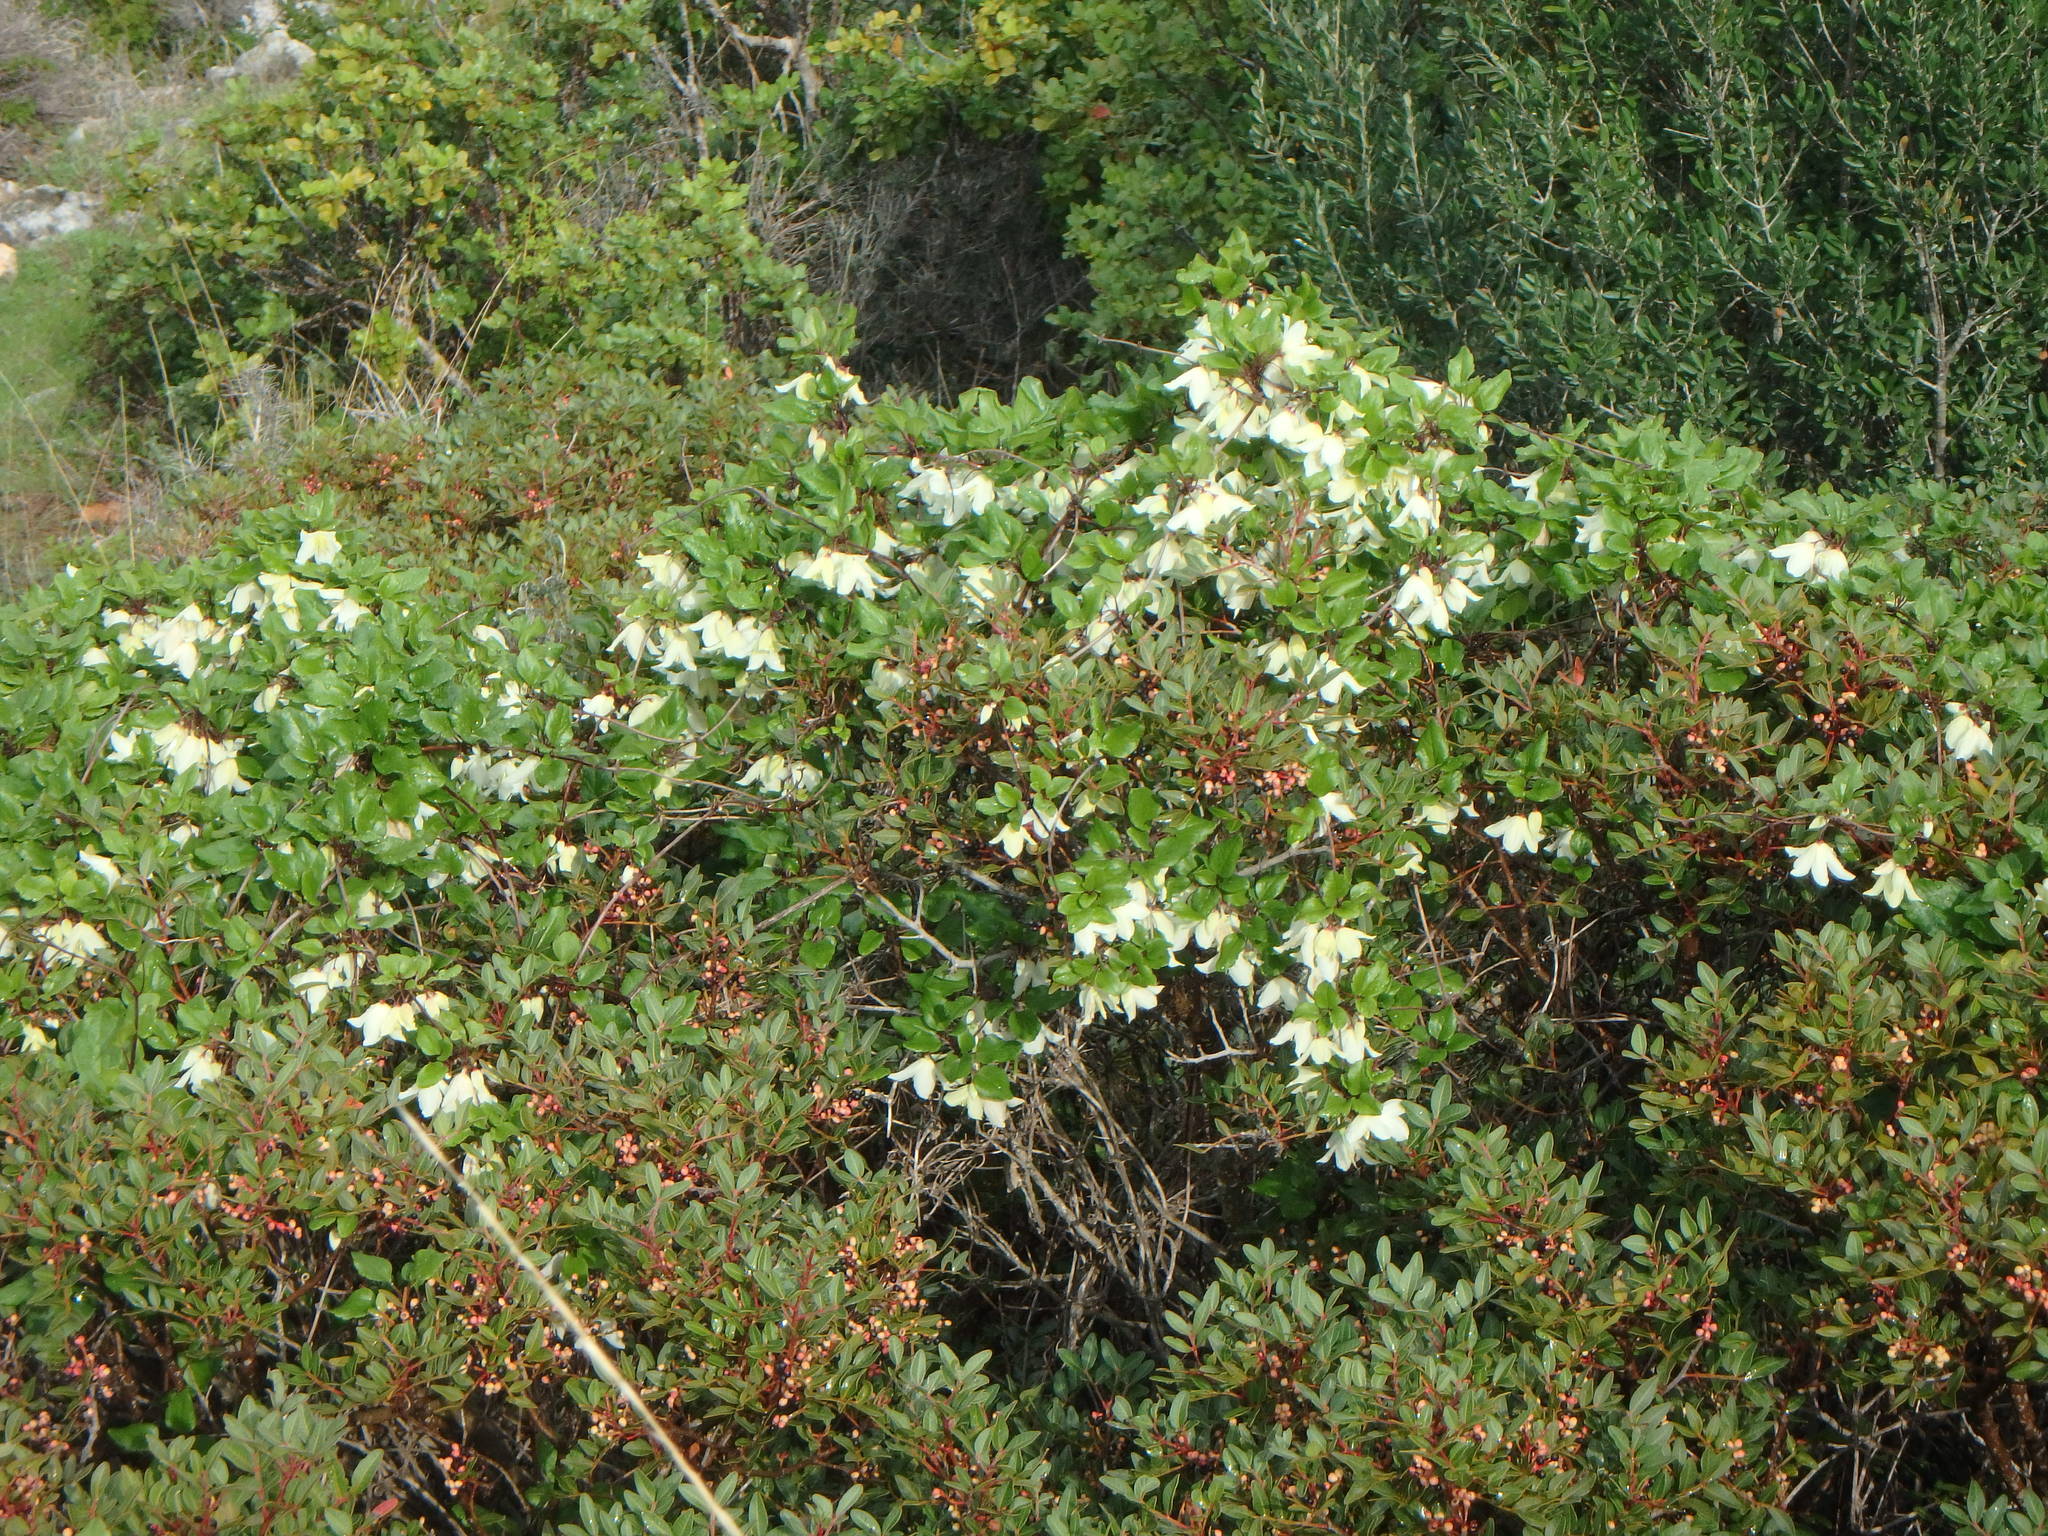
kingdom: Plantae
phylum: Tracheophyta
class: Magnoliopsida
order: Ranunculales
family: Ranunculaceae
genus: Clematis
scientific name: Clematis cirrhosa
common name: Early virgin's-bower
